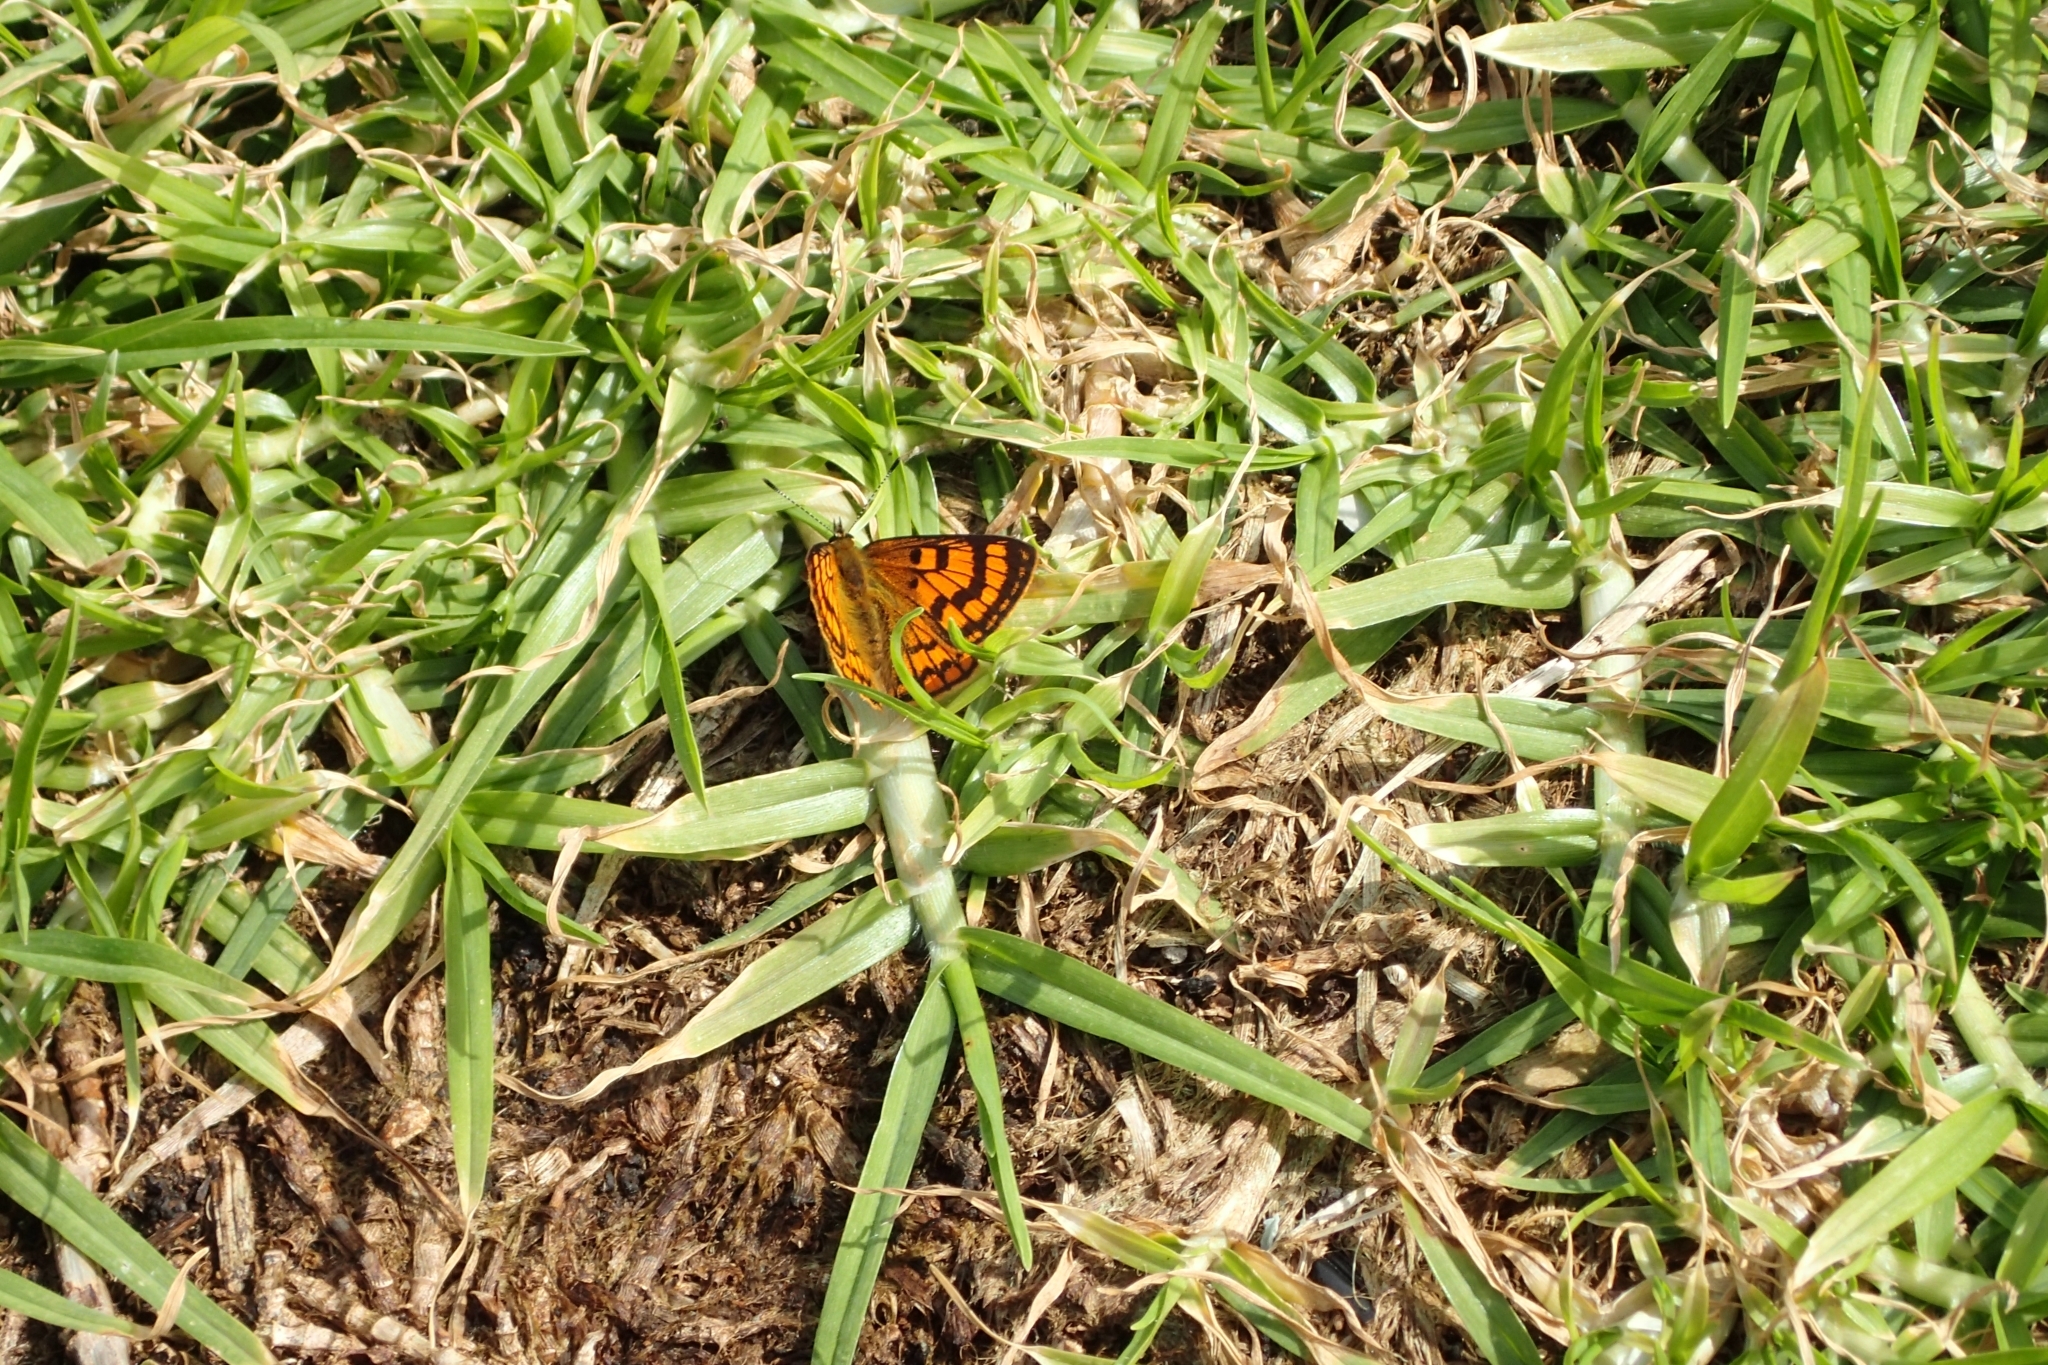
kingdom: Animalia
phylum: Arthropoda
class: Insecta
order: Lepidoptera
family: Lycaenidae
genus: Lycaena
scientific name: Lycaena salustius
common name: North island coastal copper
